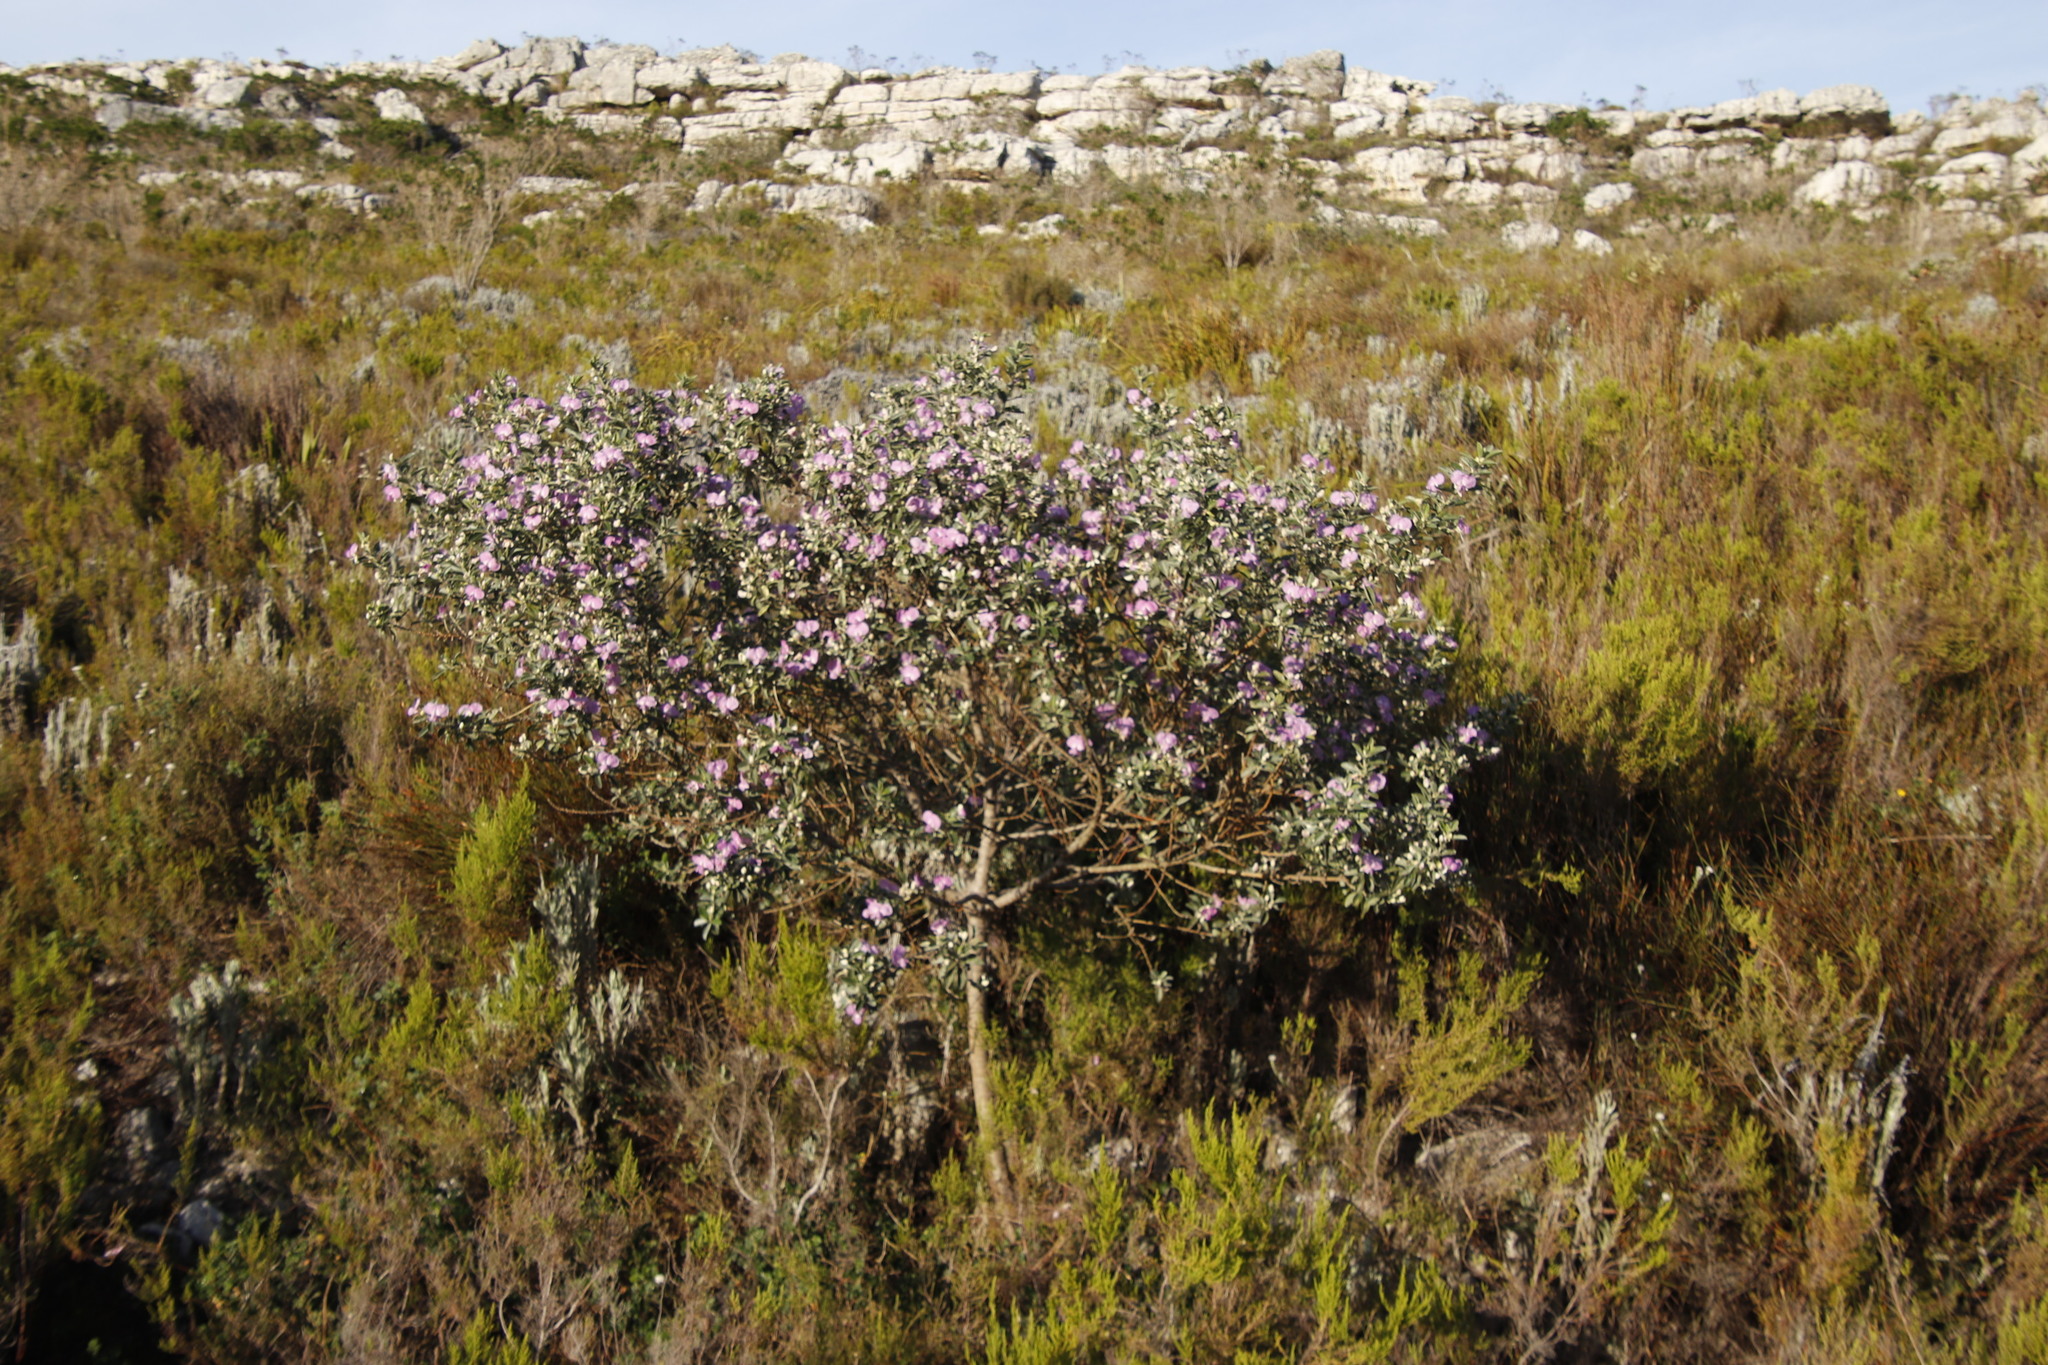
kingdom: Plantae
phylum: Tracheophyta
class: Magnoliopsida
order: Fabales
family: Fabaceae
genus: Podalyria
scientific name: Podalyria calyptrata
